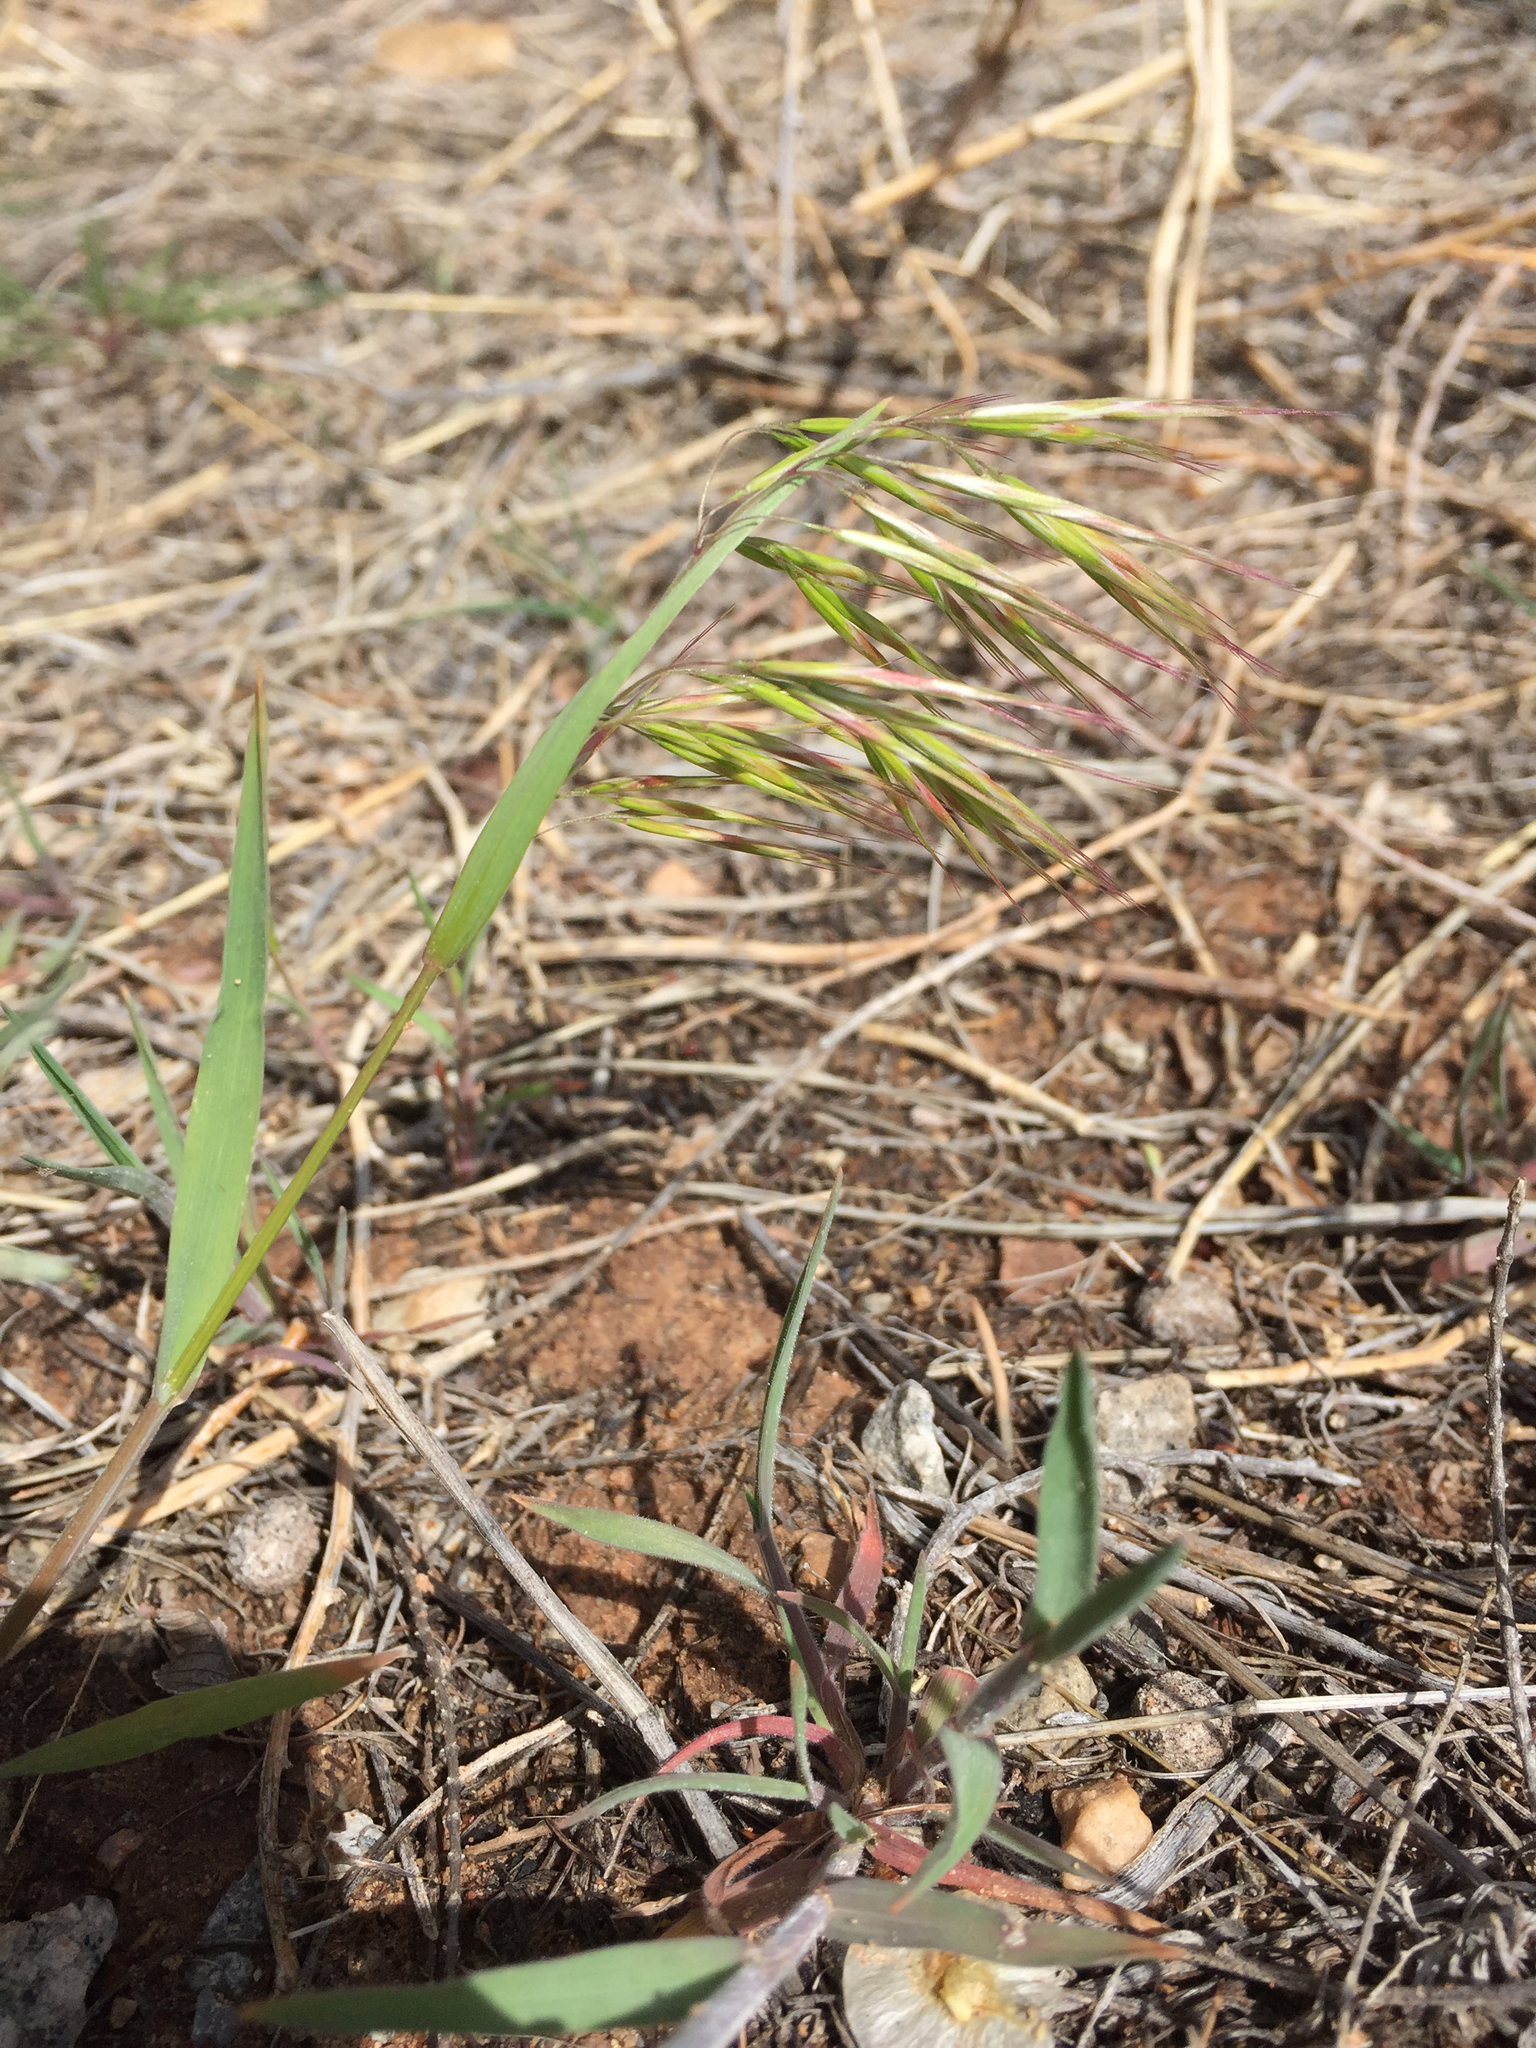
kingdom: Plantae
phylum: Tracheophyta
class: Liliopsida
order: Poales
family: Poaceae
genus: Bromus
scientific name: Bromus tectorum
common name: Cheatgrass
